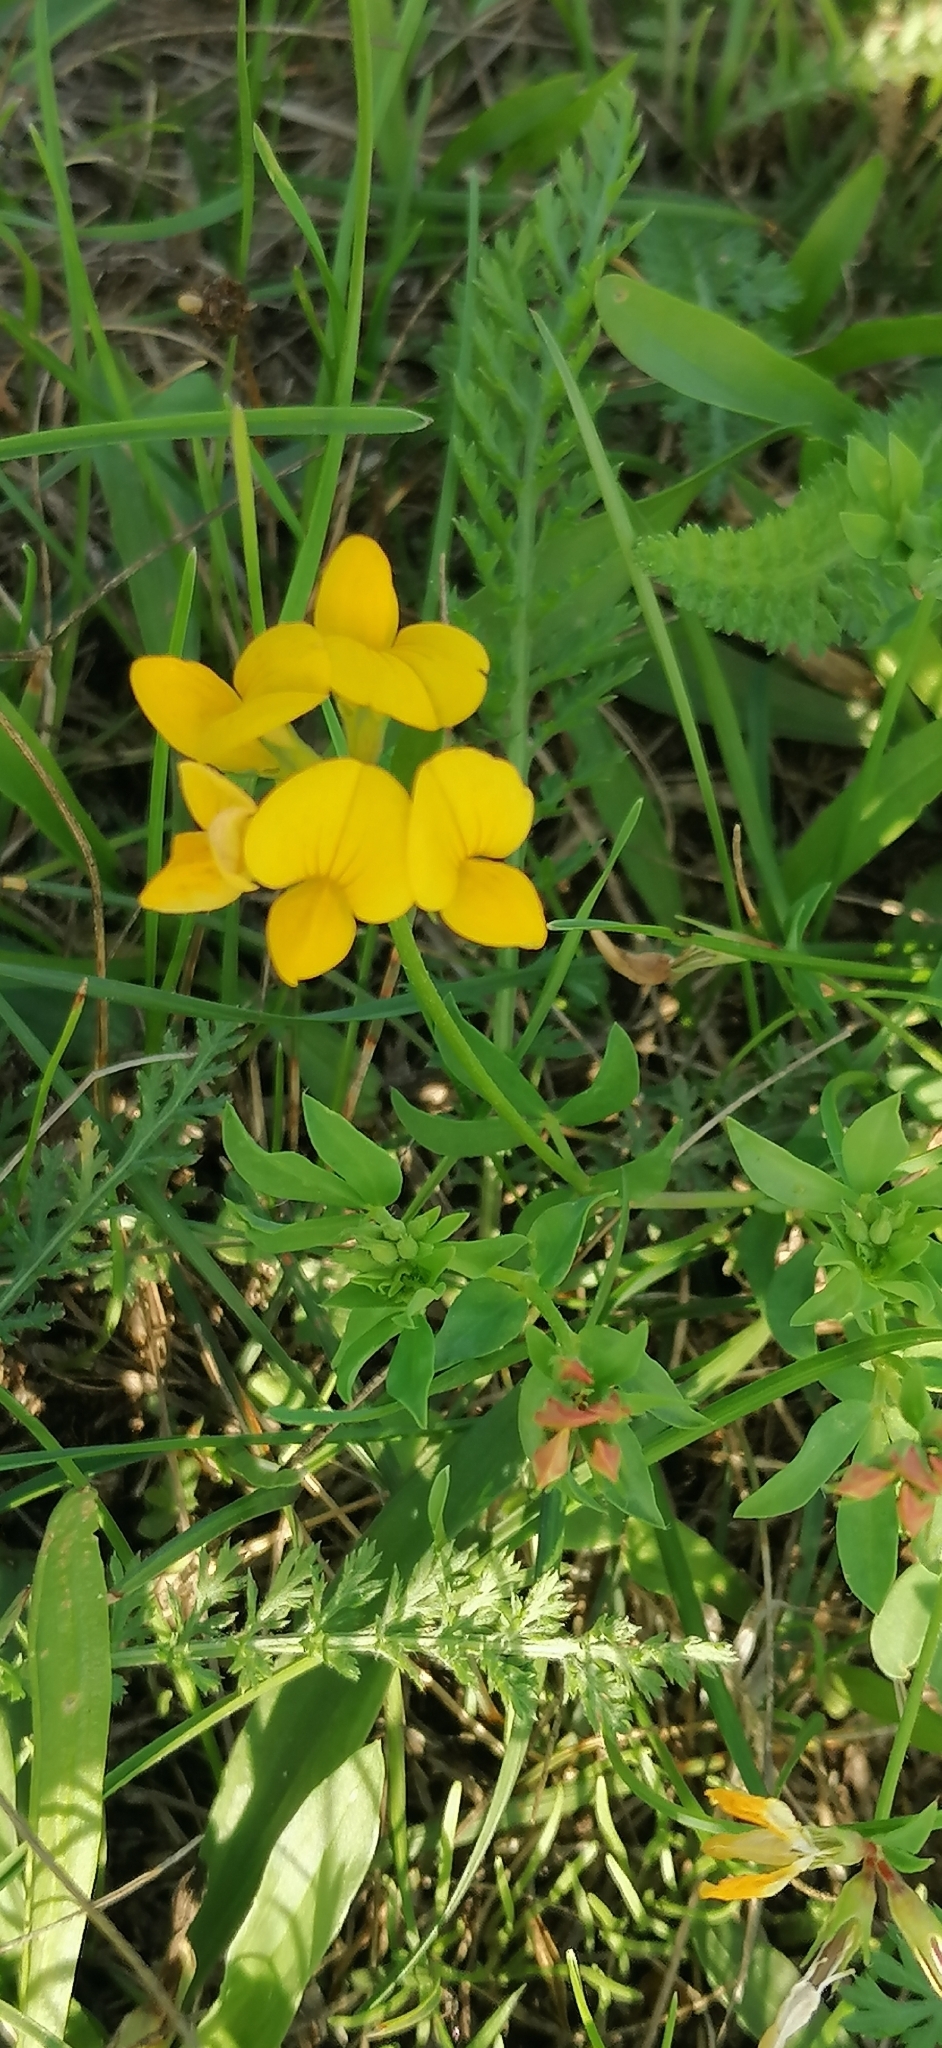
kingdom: Plantae
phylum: Tracheophyta
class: Magnoliopsida
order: Fabales
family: Fabaceae
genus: Lotus
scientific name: Lotus corniculatus
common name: Common bird's-foot-trefoil
